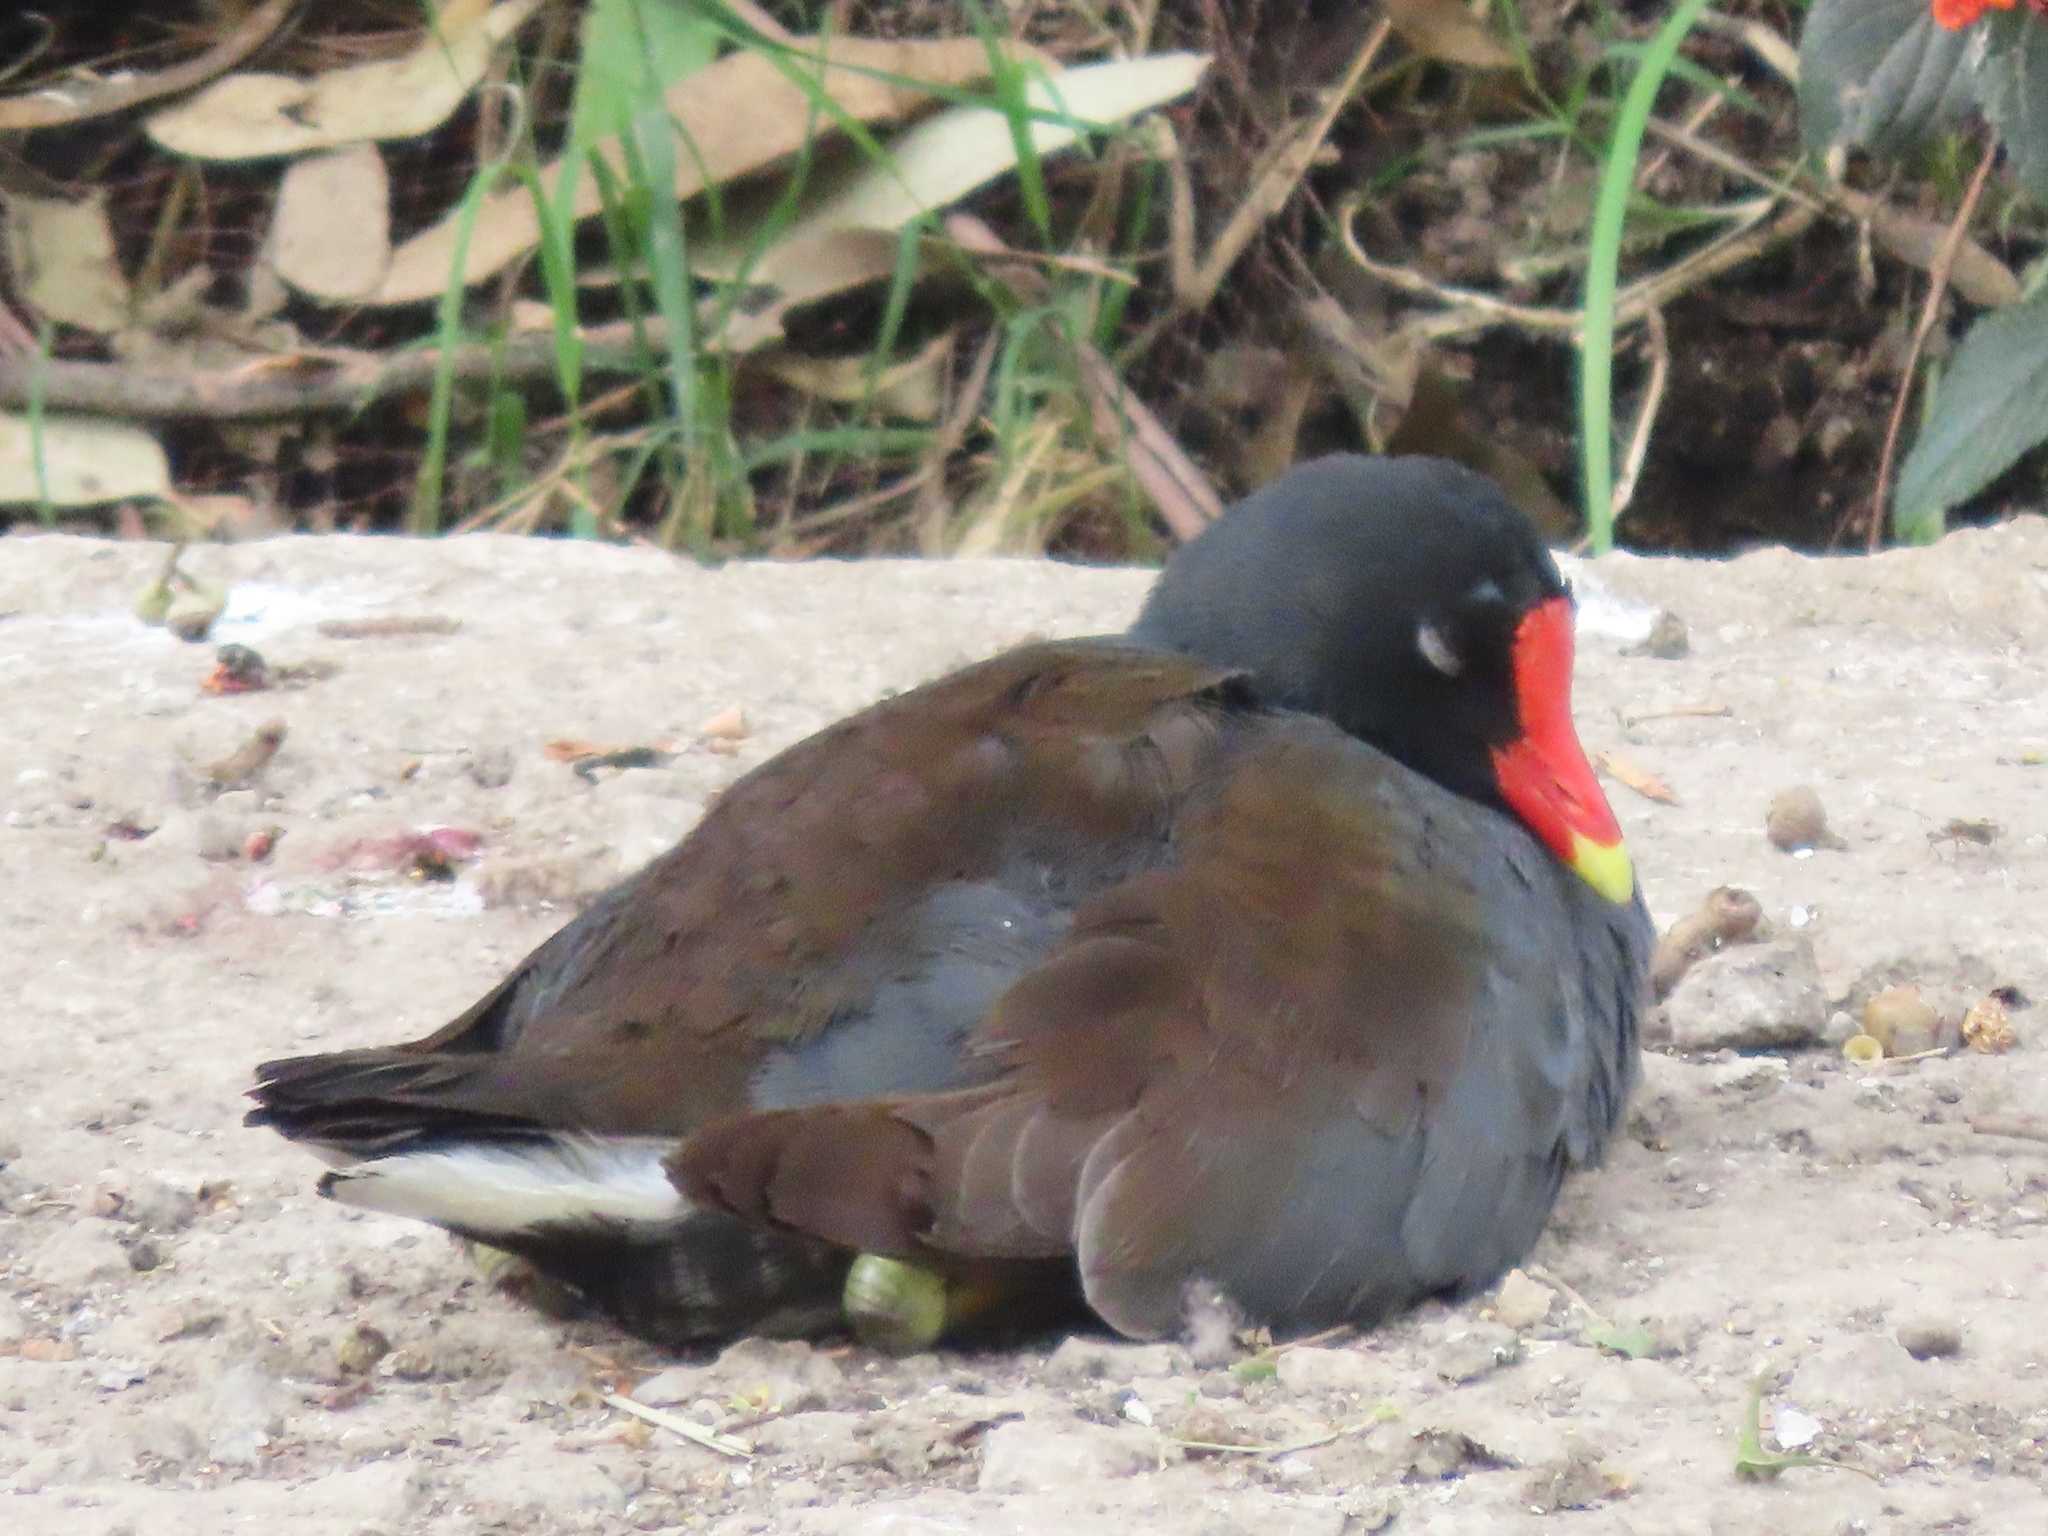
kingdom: Animalia
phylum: Chordata
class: Aves
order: Gruiformes
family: Rallidae
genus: Gallinula
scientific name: Gallinula chloropus
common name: Common moorhen
